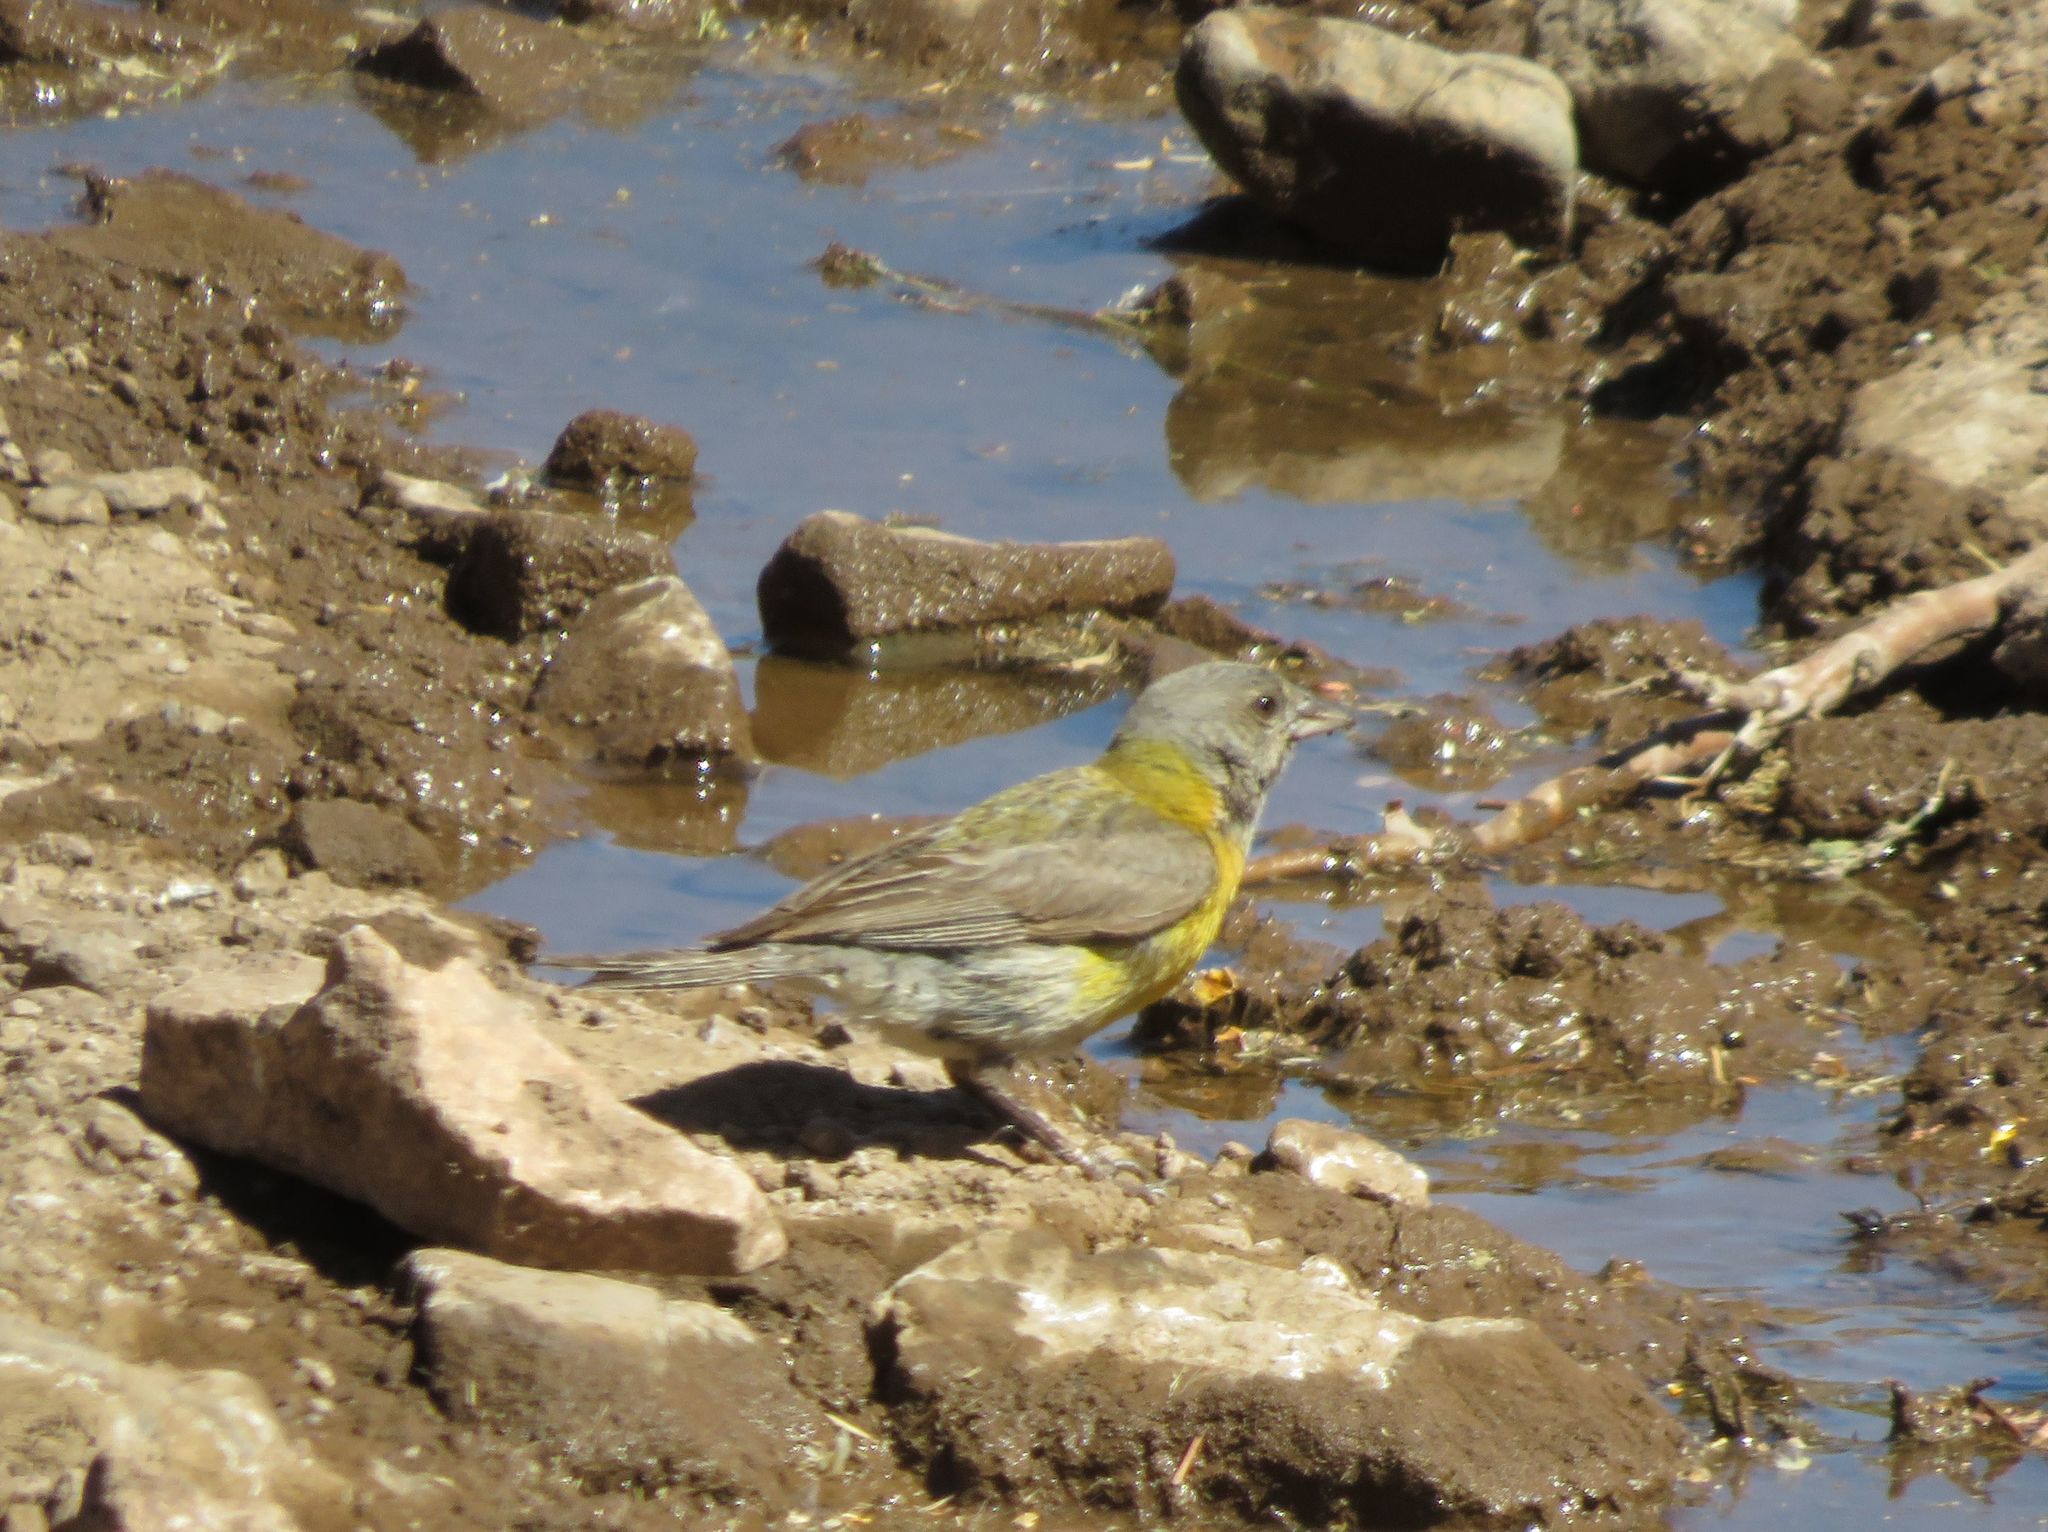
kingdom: Animalia
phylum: Chordata
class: Aves
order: Passeriformes
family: Thraupidae
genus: Phrygilus
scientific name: Phrygilus gayi
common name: Grey-hooded sierra finch
